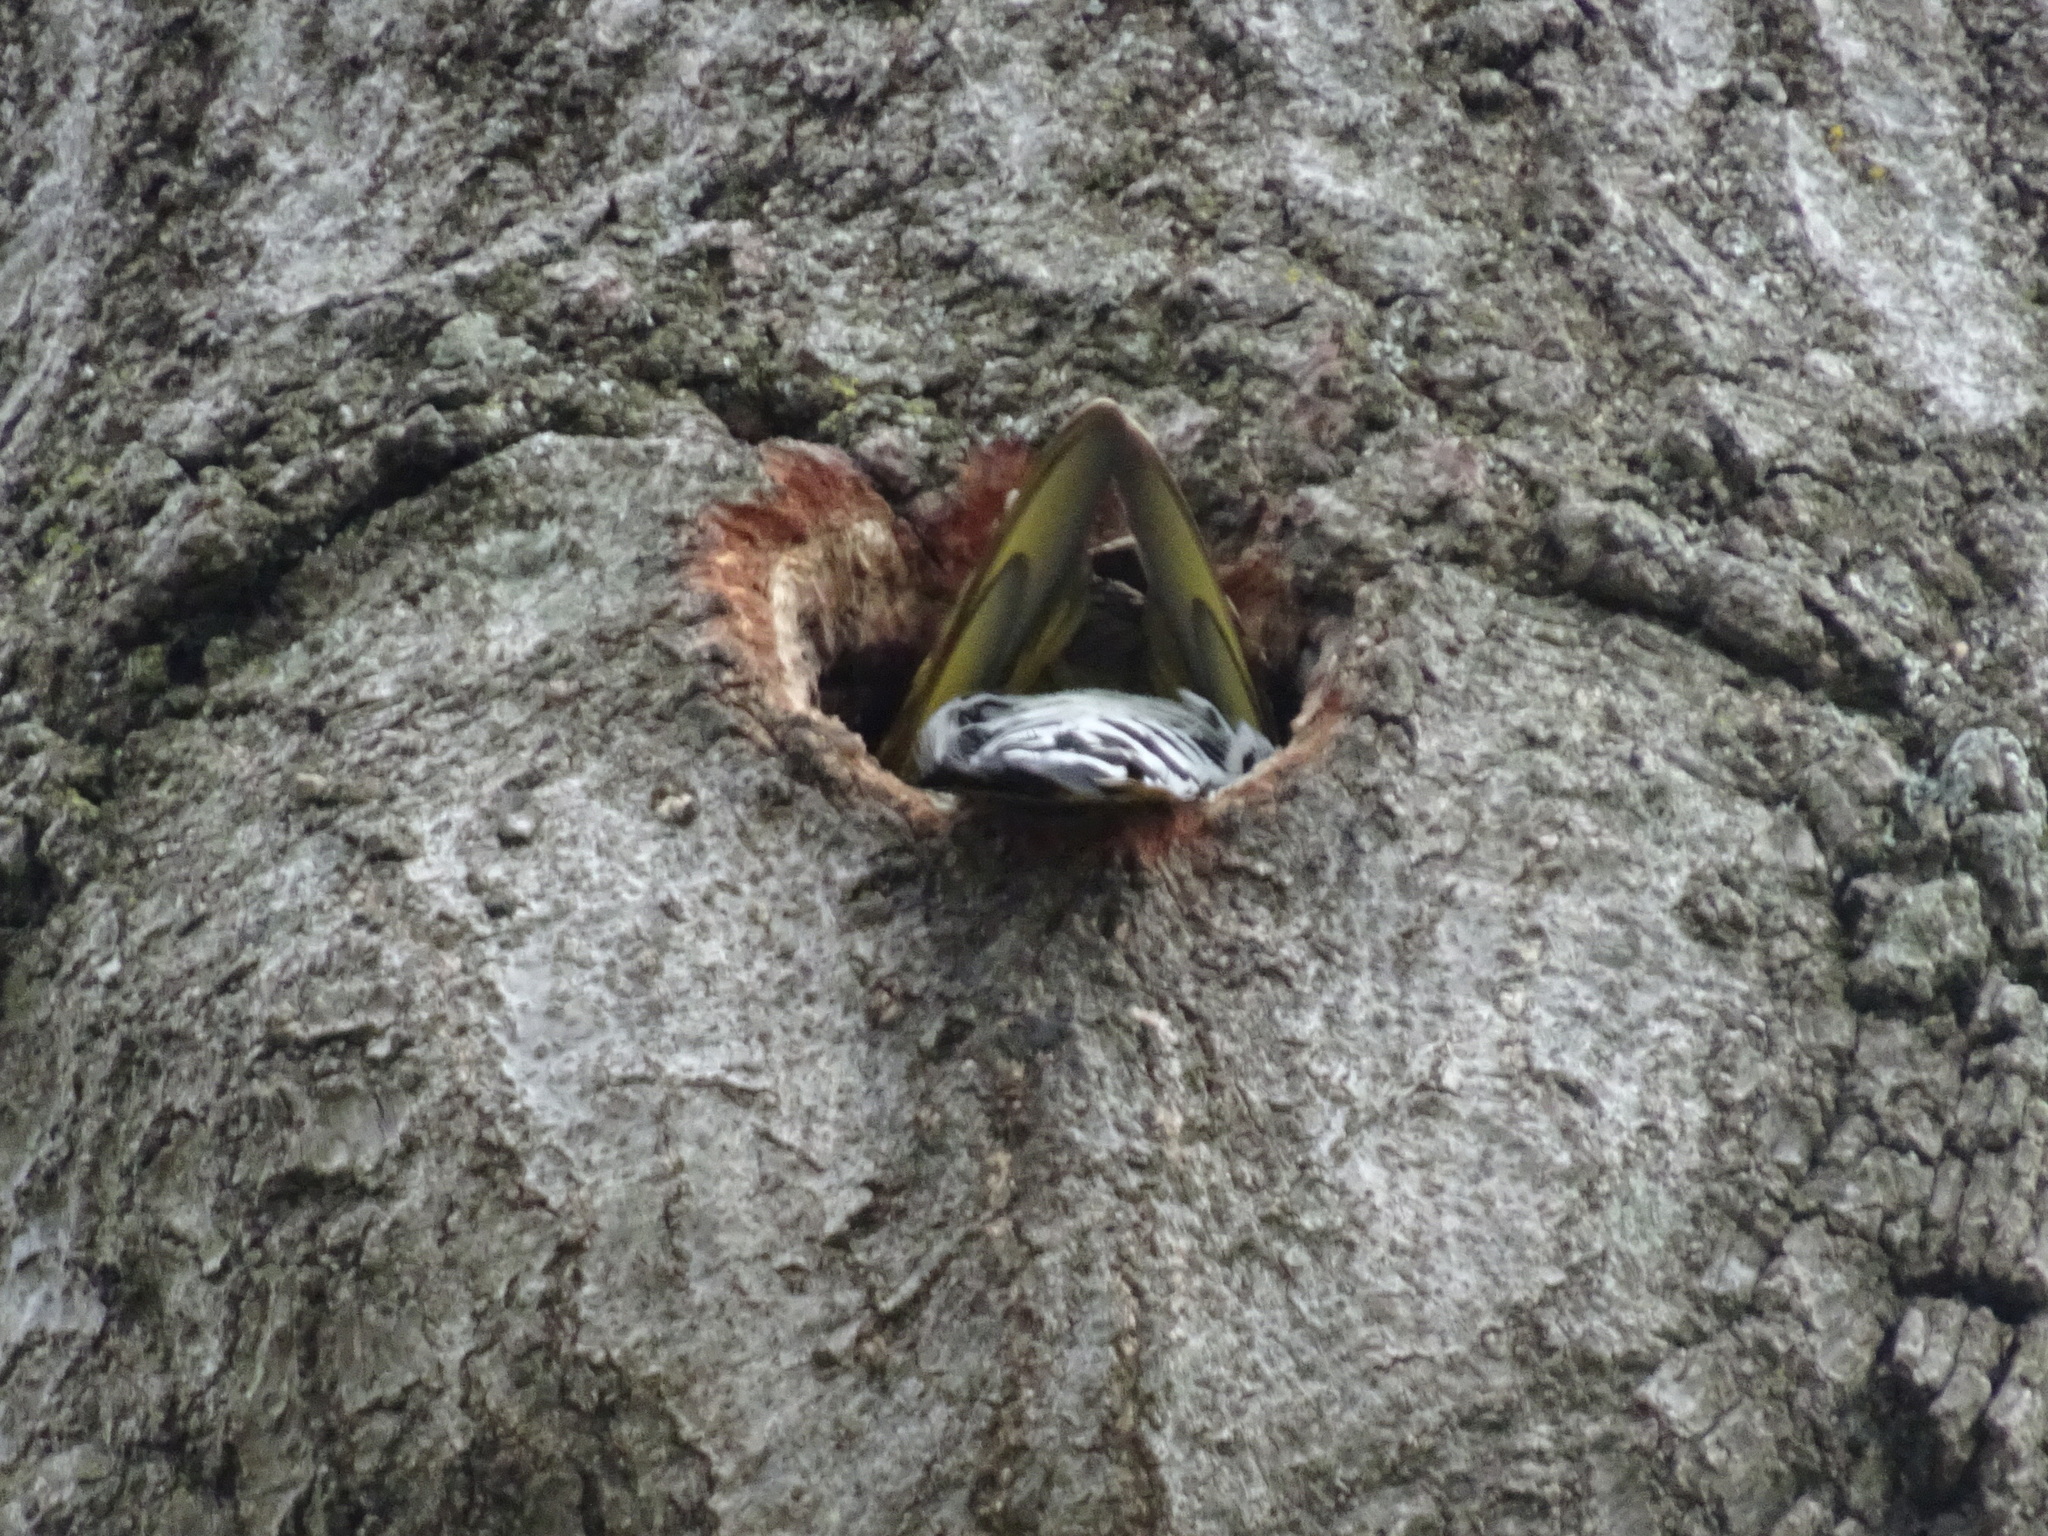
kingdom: Animalia
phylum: Chordata
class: Aves
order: Piciformes
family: Picidae
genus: Colaptes
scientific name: Colaptes auratus
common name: Northern flicker
